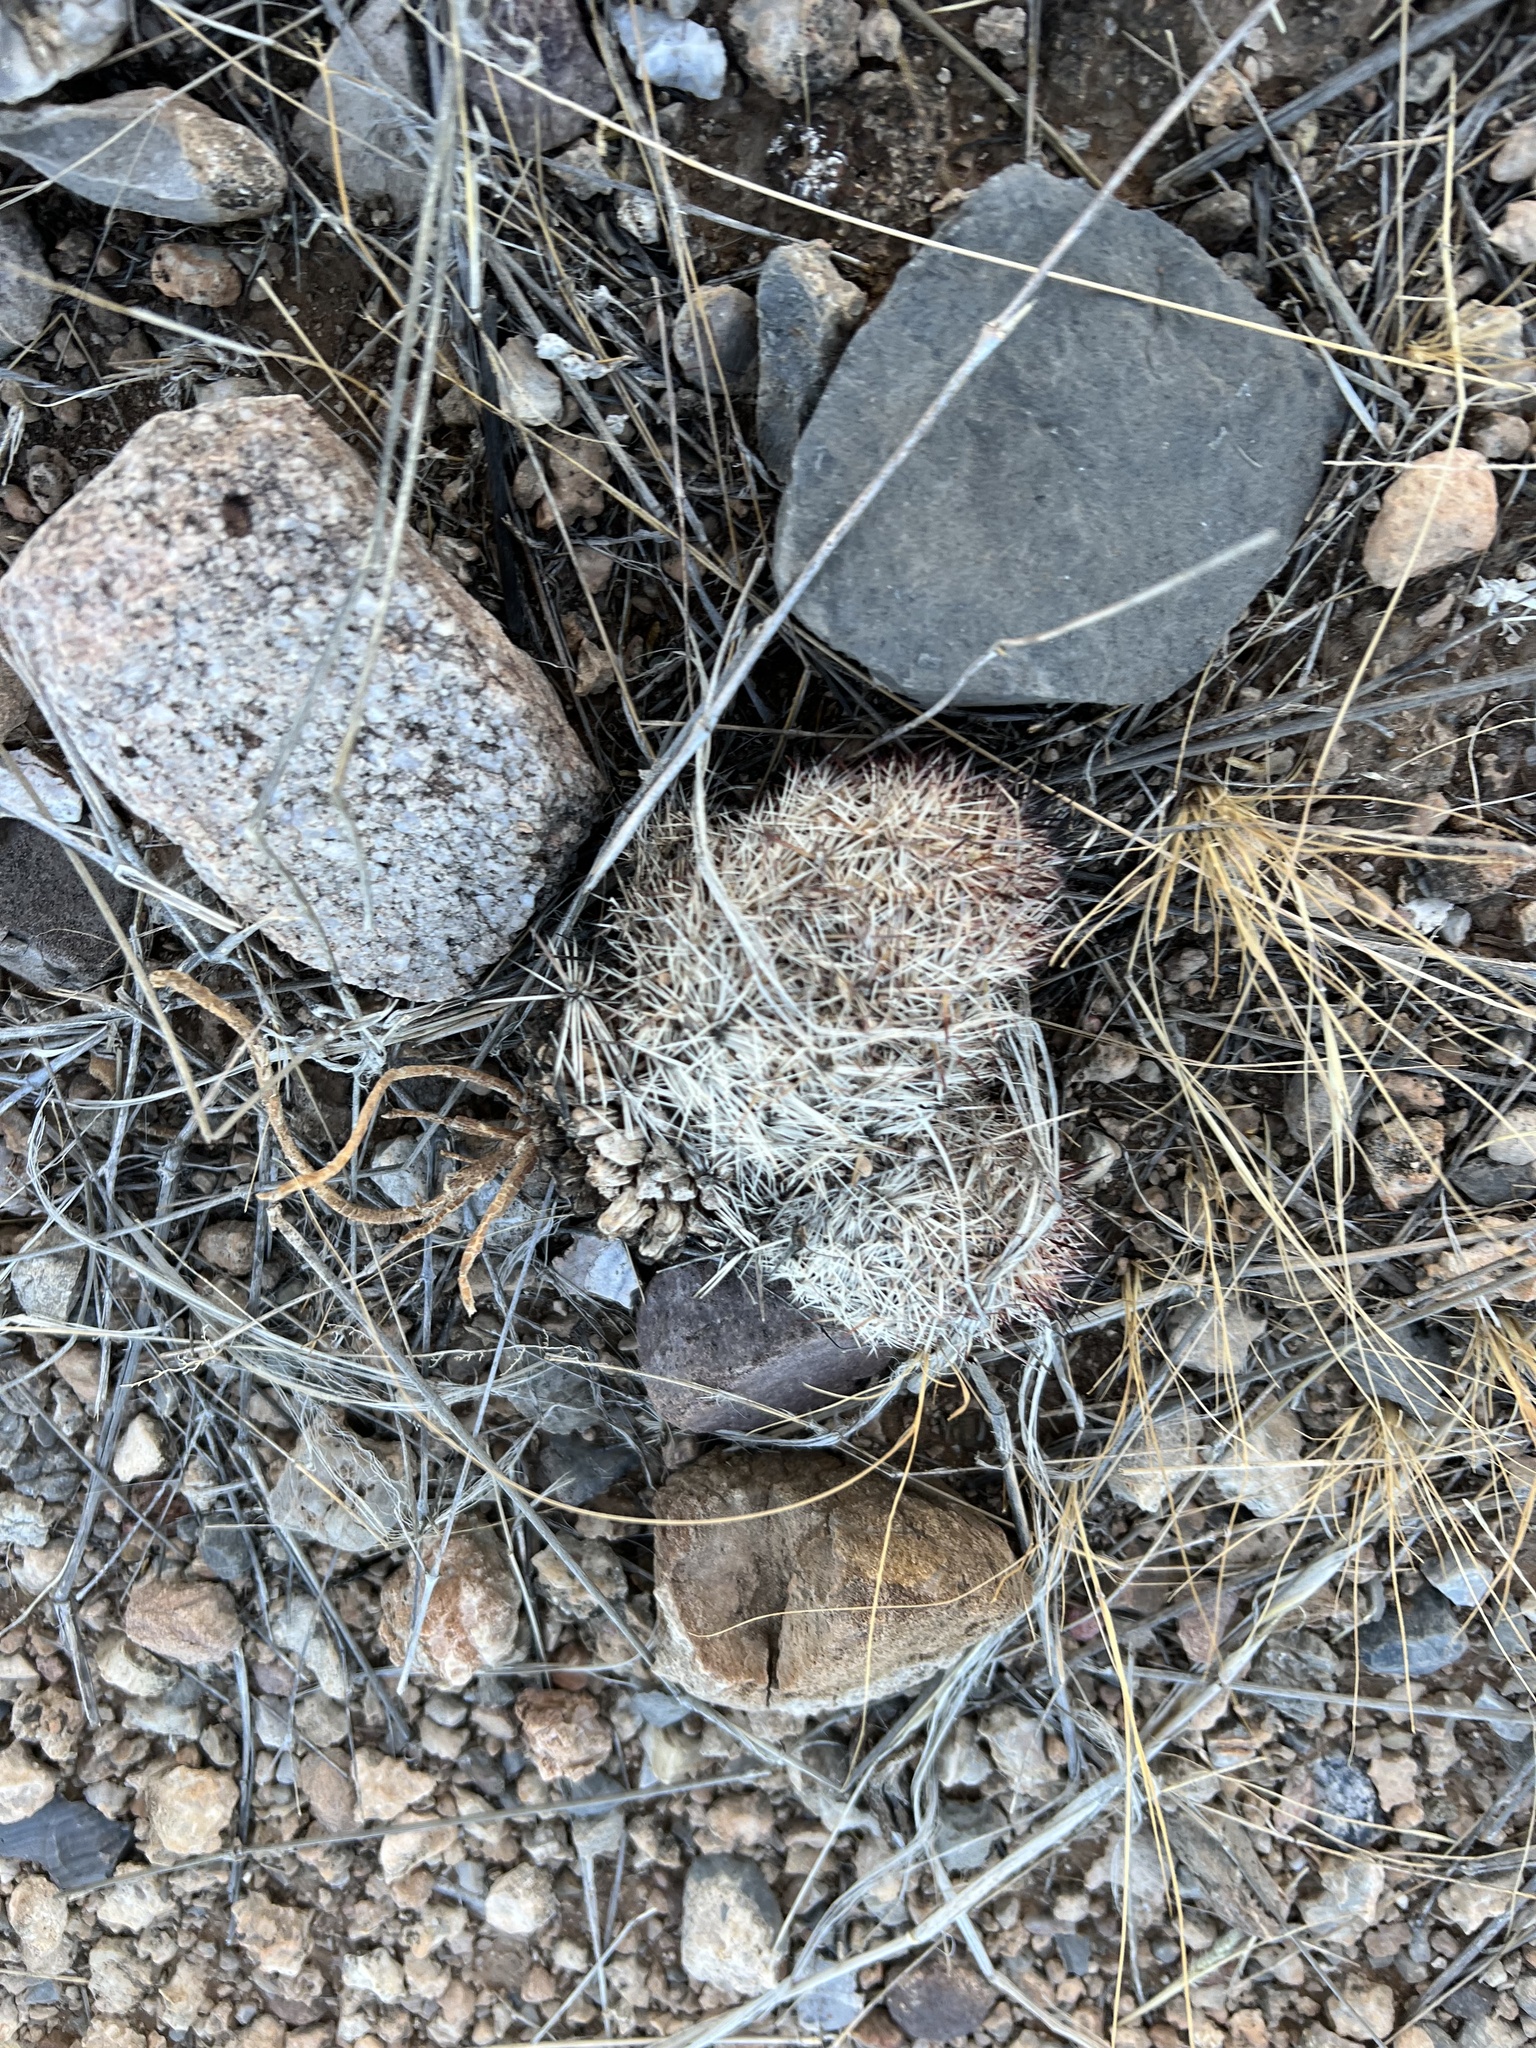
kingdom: Plantae
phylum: Tracheophyta
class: Magnoliopsida
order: Caryophyllales
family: Cactaceae
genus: Sclerocactus
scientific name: Sclerocactus intertextus
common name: White fish-hook cactus
